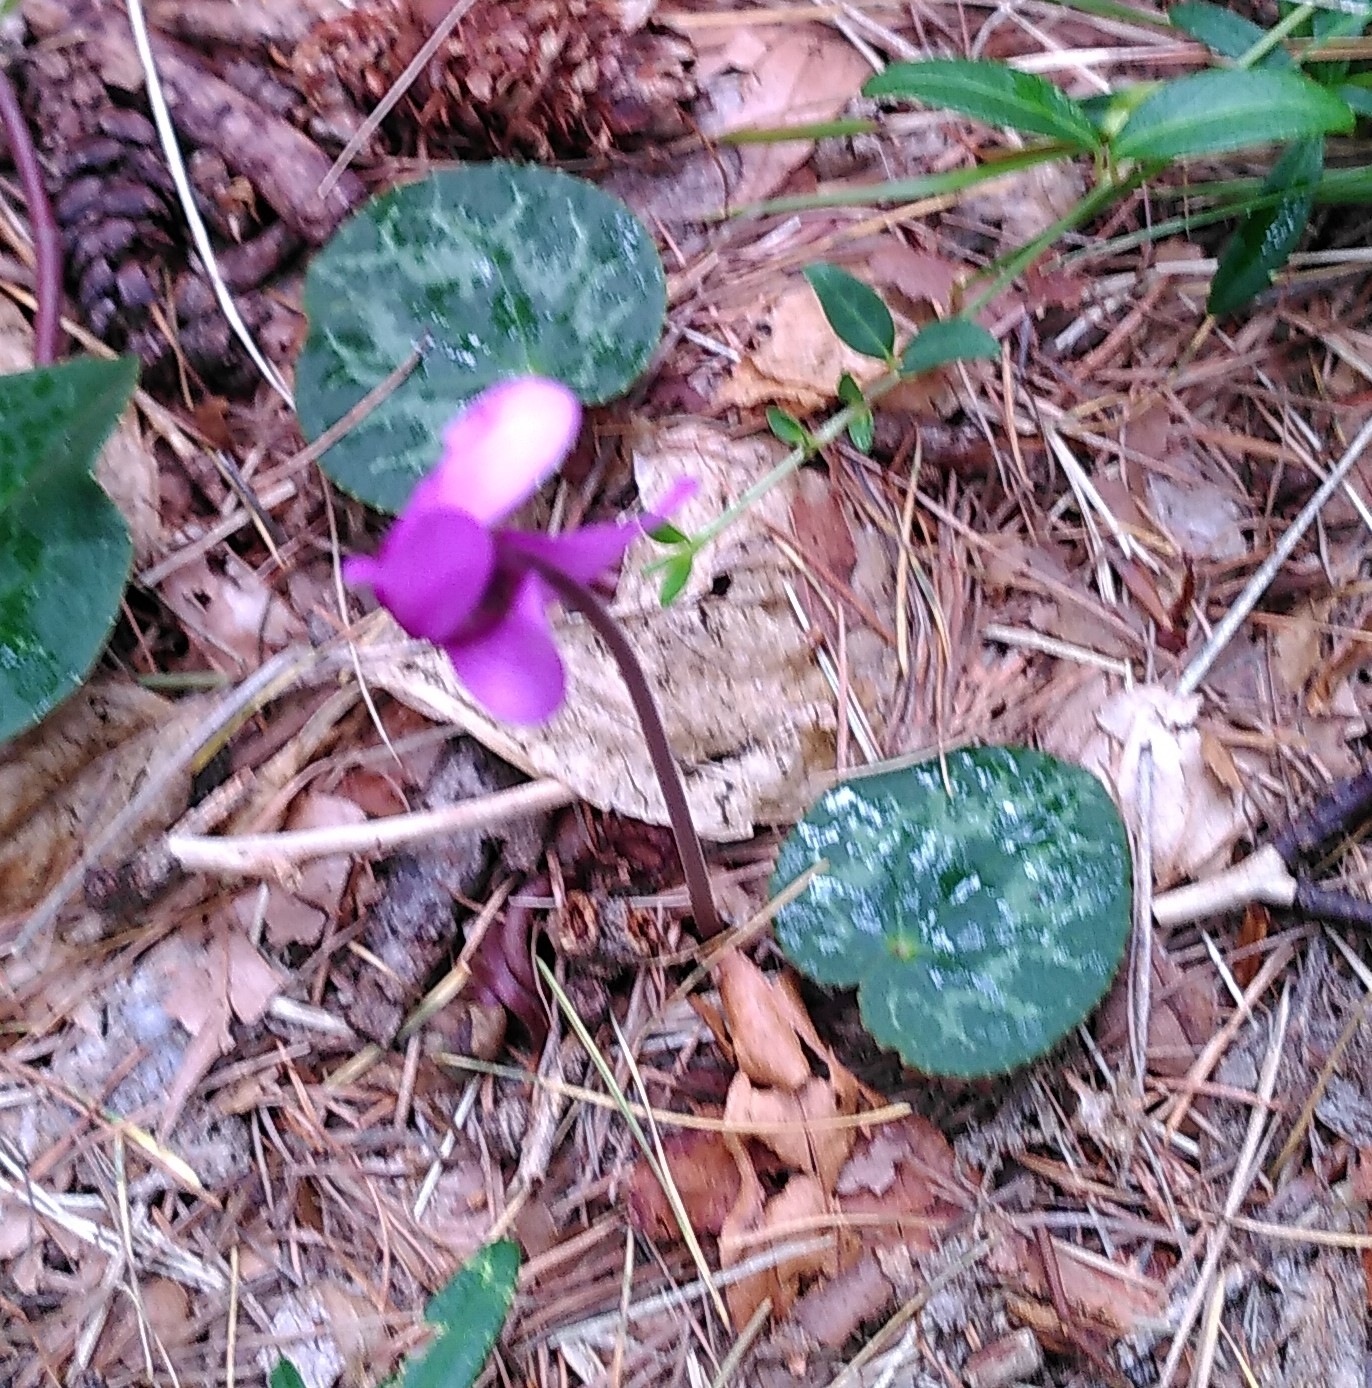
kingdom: Plantae
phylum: Tracheophyta
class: Magnoliopsida
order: Ericales
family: Primulaceae
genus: Cyclamen
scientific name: Cyclamen purpurascens
